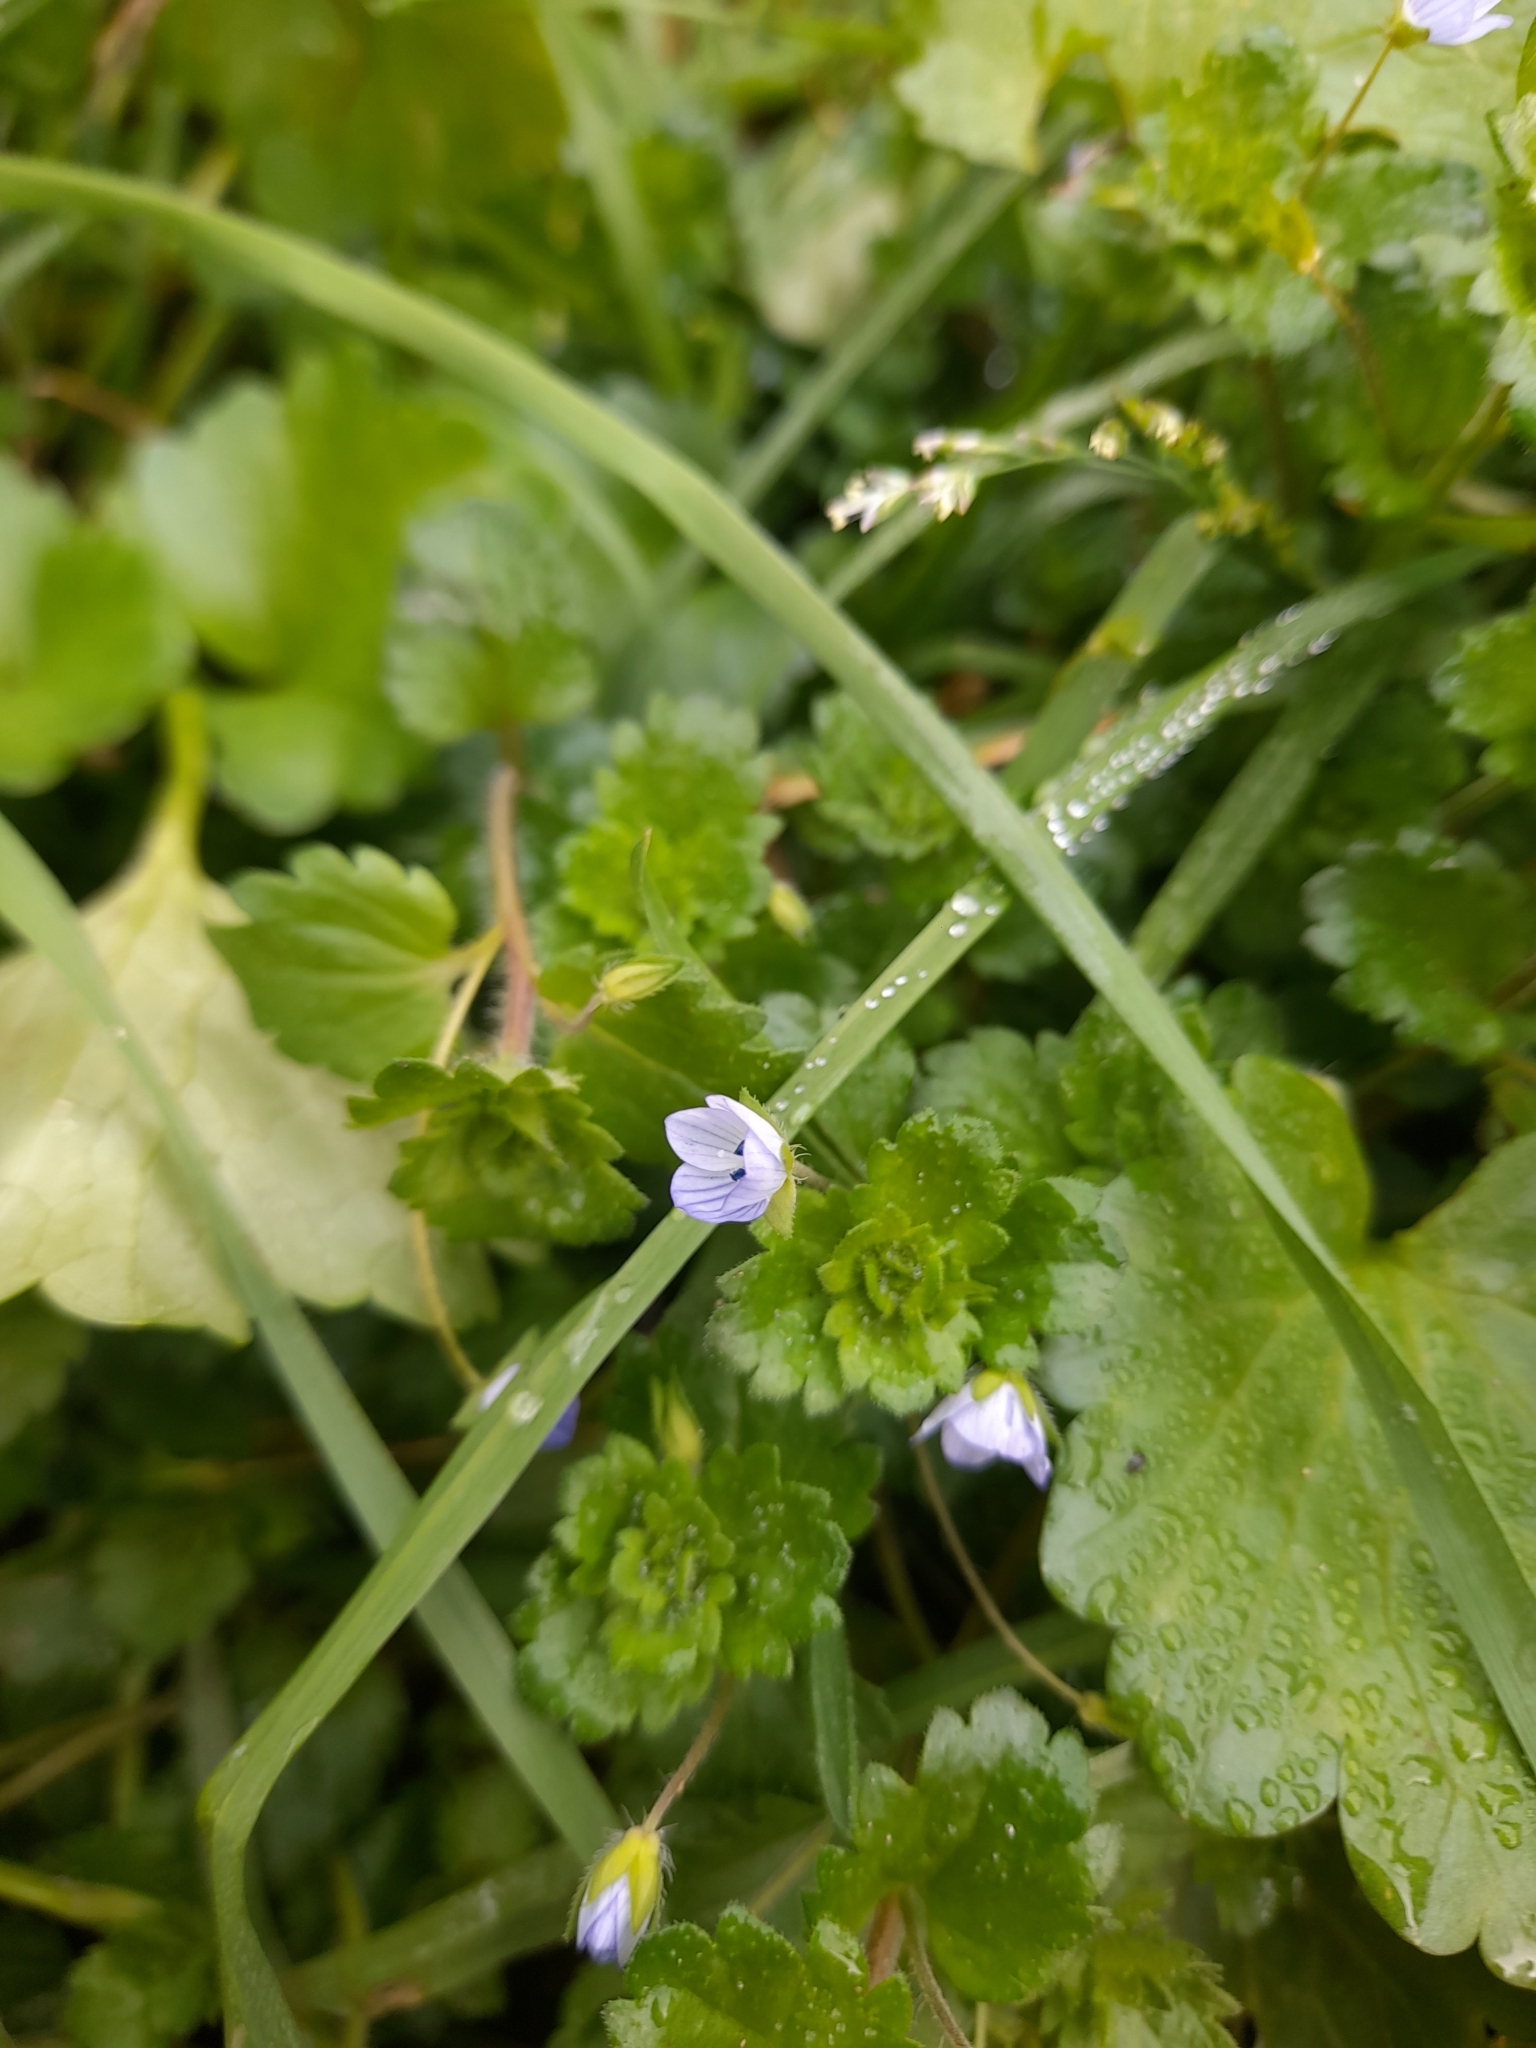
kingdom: Plantae
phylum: Tracheophyta
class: Magnoliopsida
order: Lamiales
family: Plantaginaceae
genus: Veronica
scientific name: Veronica persica
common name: Common field-speedwell
